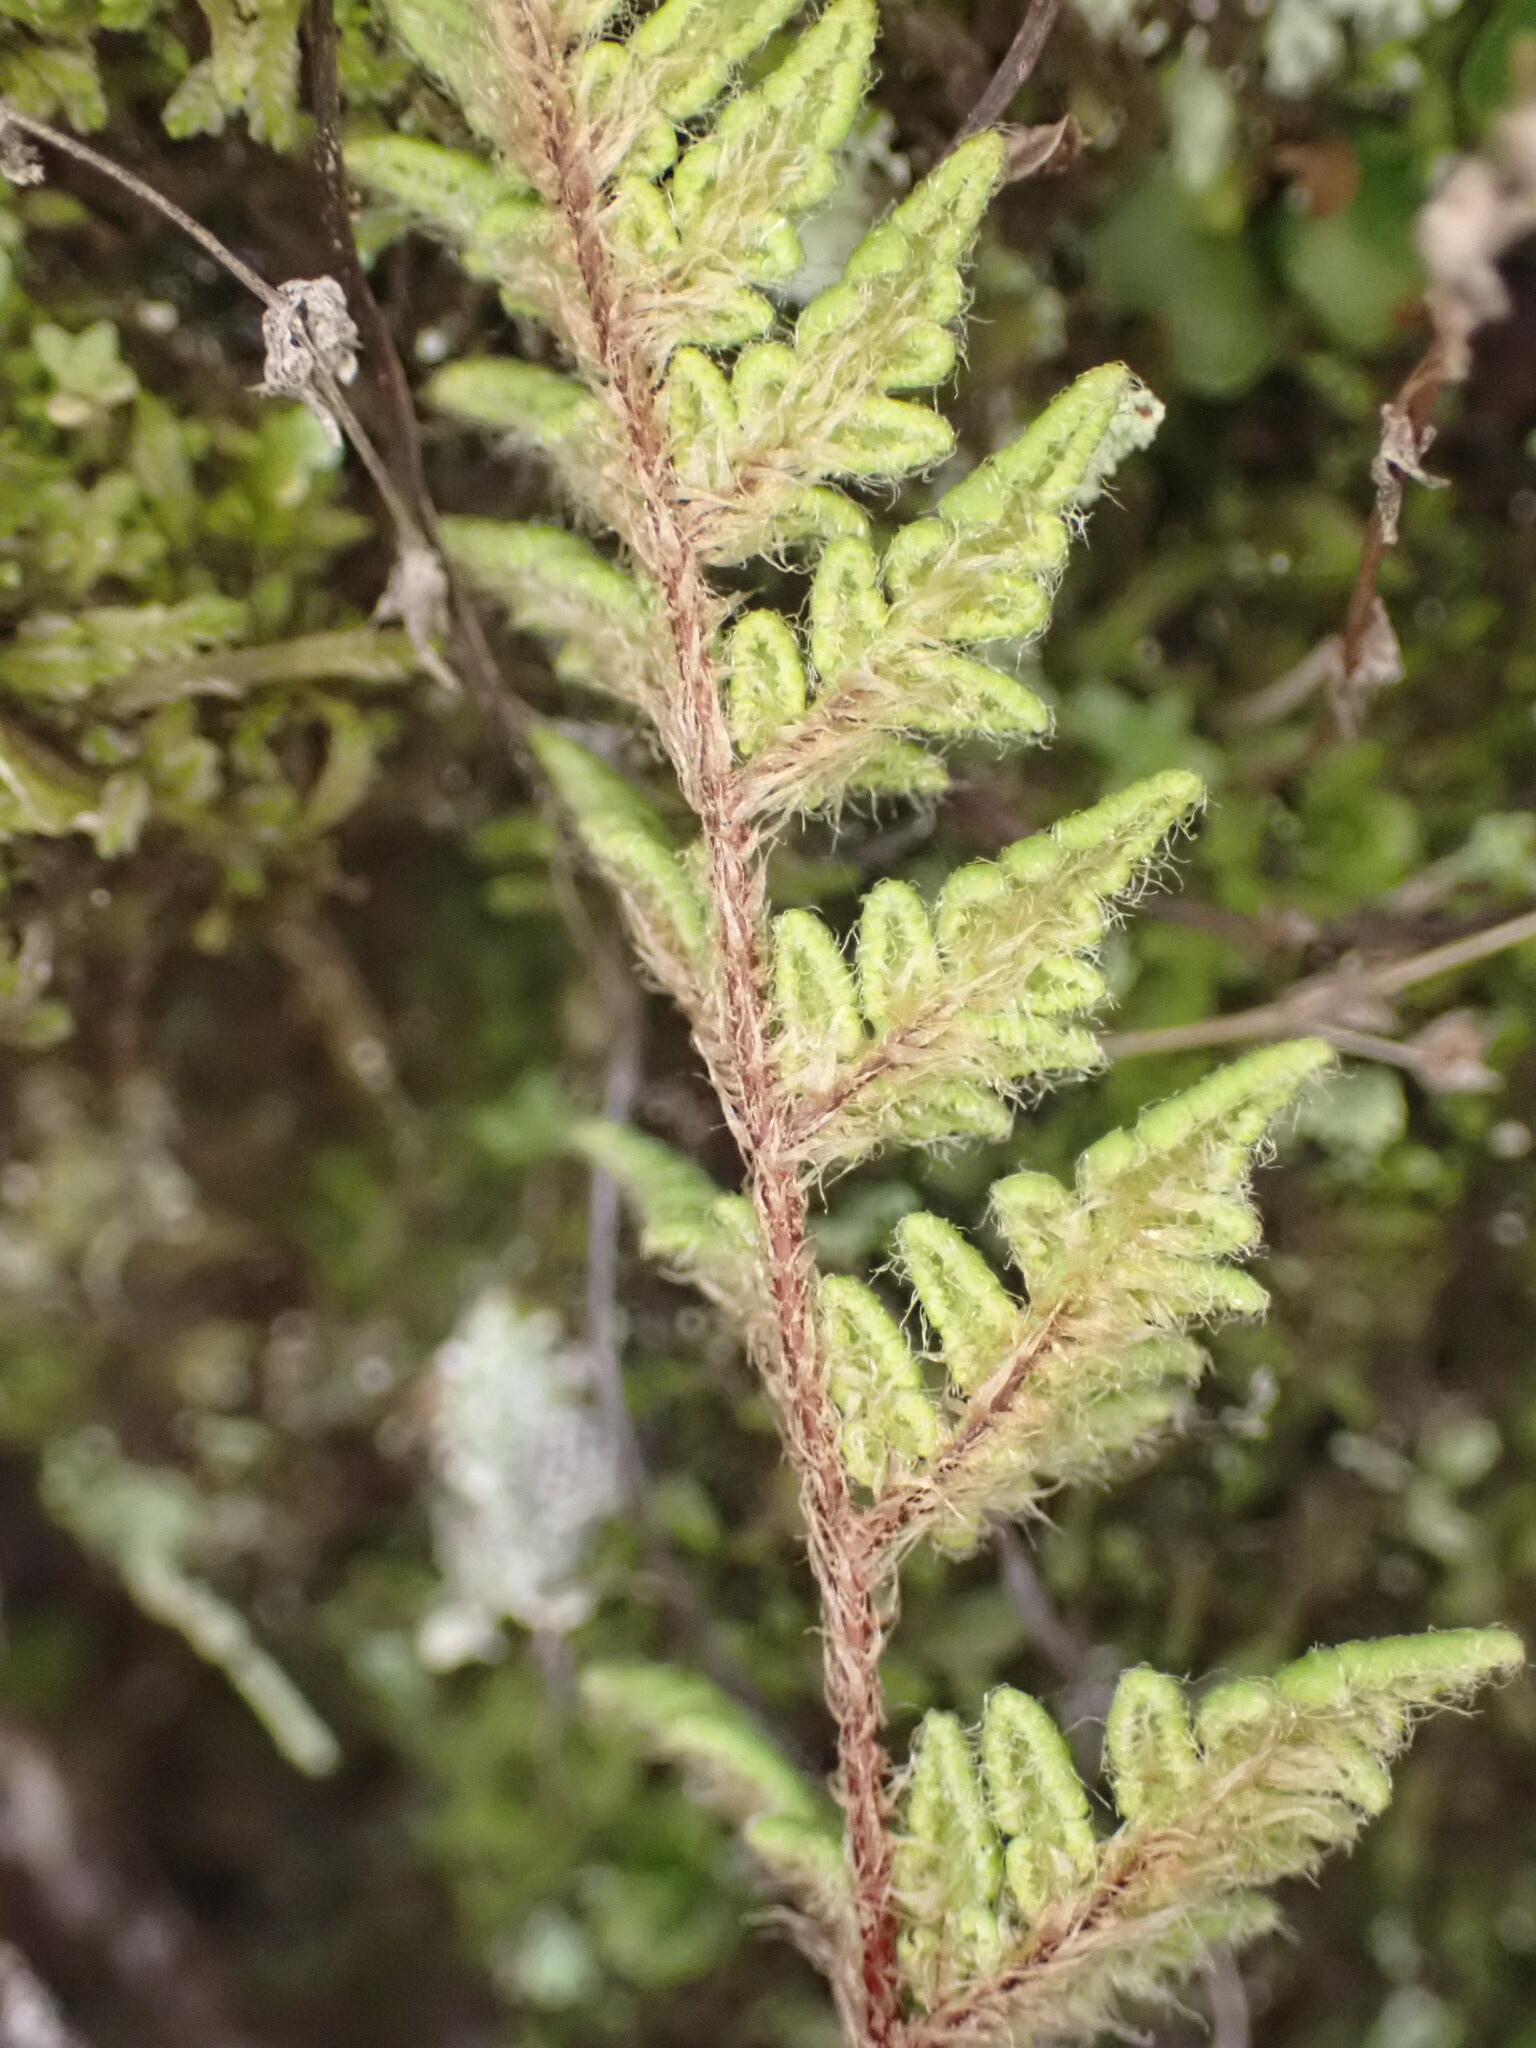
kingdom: Plantae
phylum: Tracheophyta
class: Polypodiopsida
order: Polypodiales
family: Pteridaceae
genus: Cheilanthes
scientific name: Cheilanthes distans
